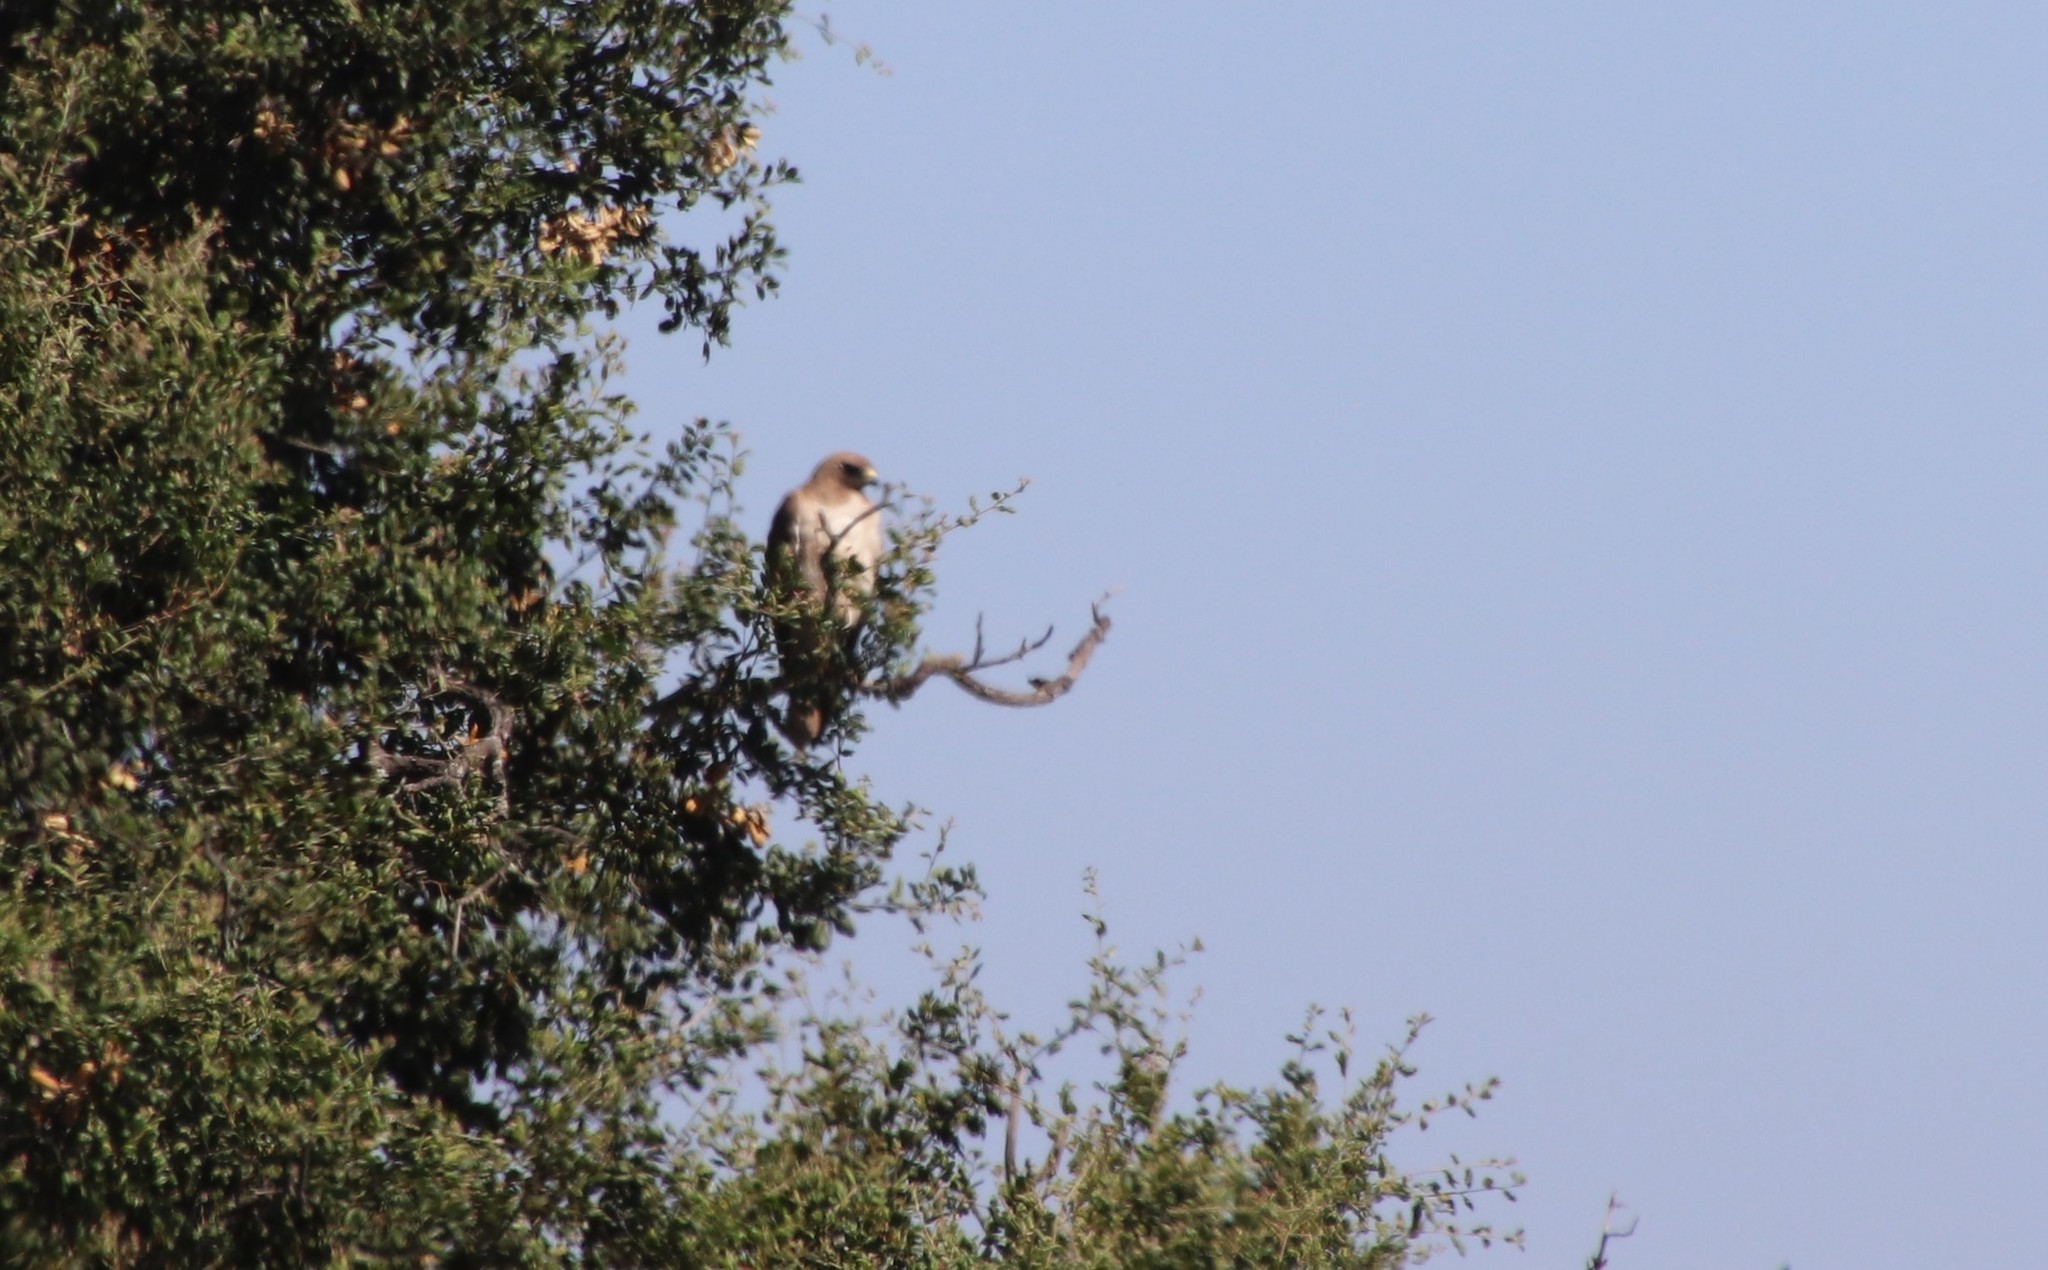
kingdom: Animalia
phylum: Chordata
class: Aves
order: Accipitriformes
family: Accipitridae
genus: Buteo
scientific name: Buteo jamaicensis
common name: Red-tailed hawk
